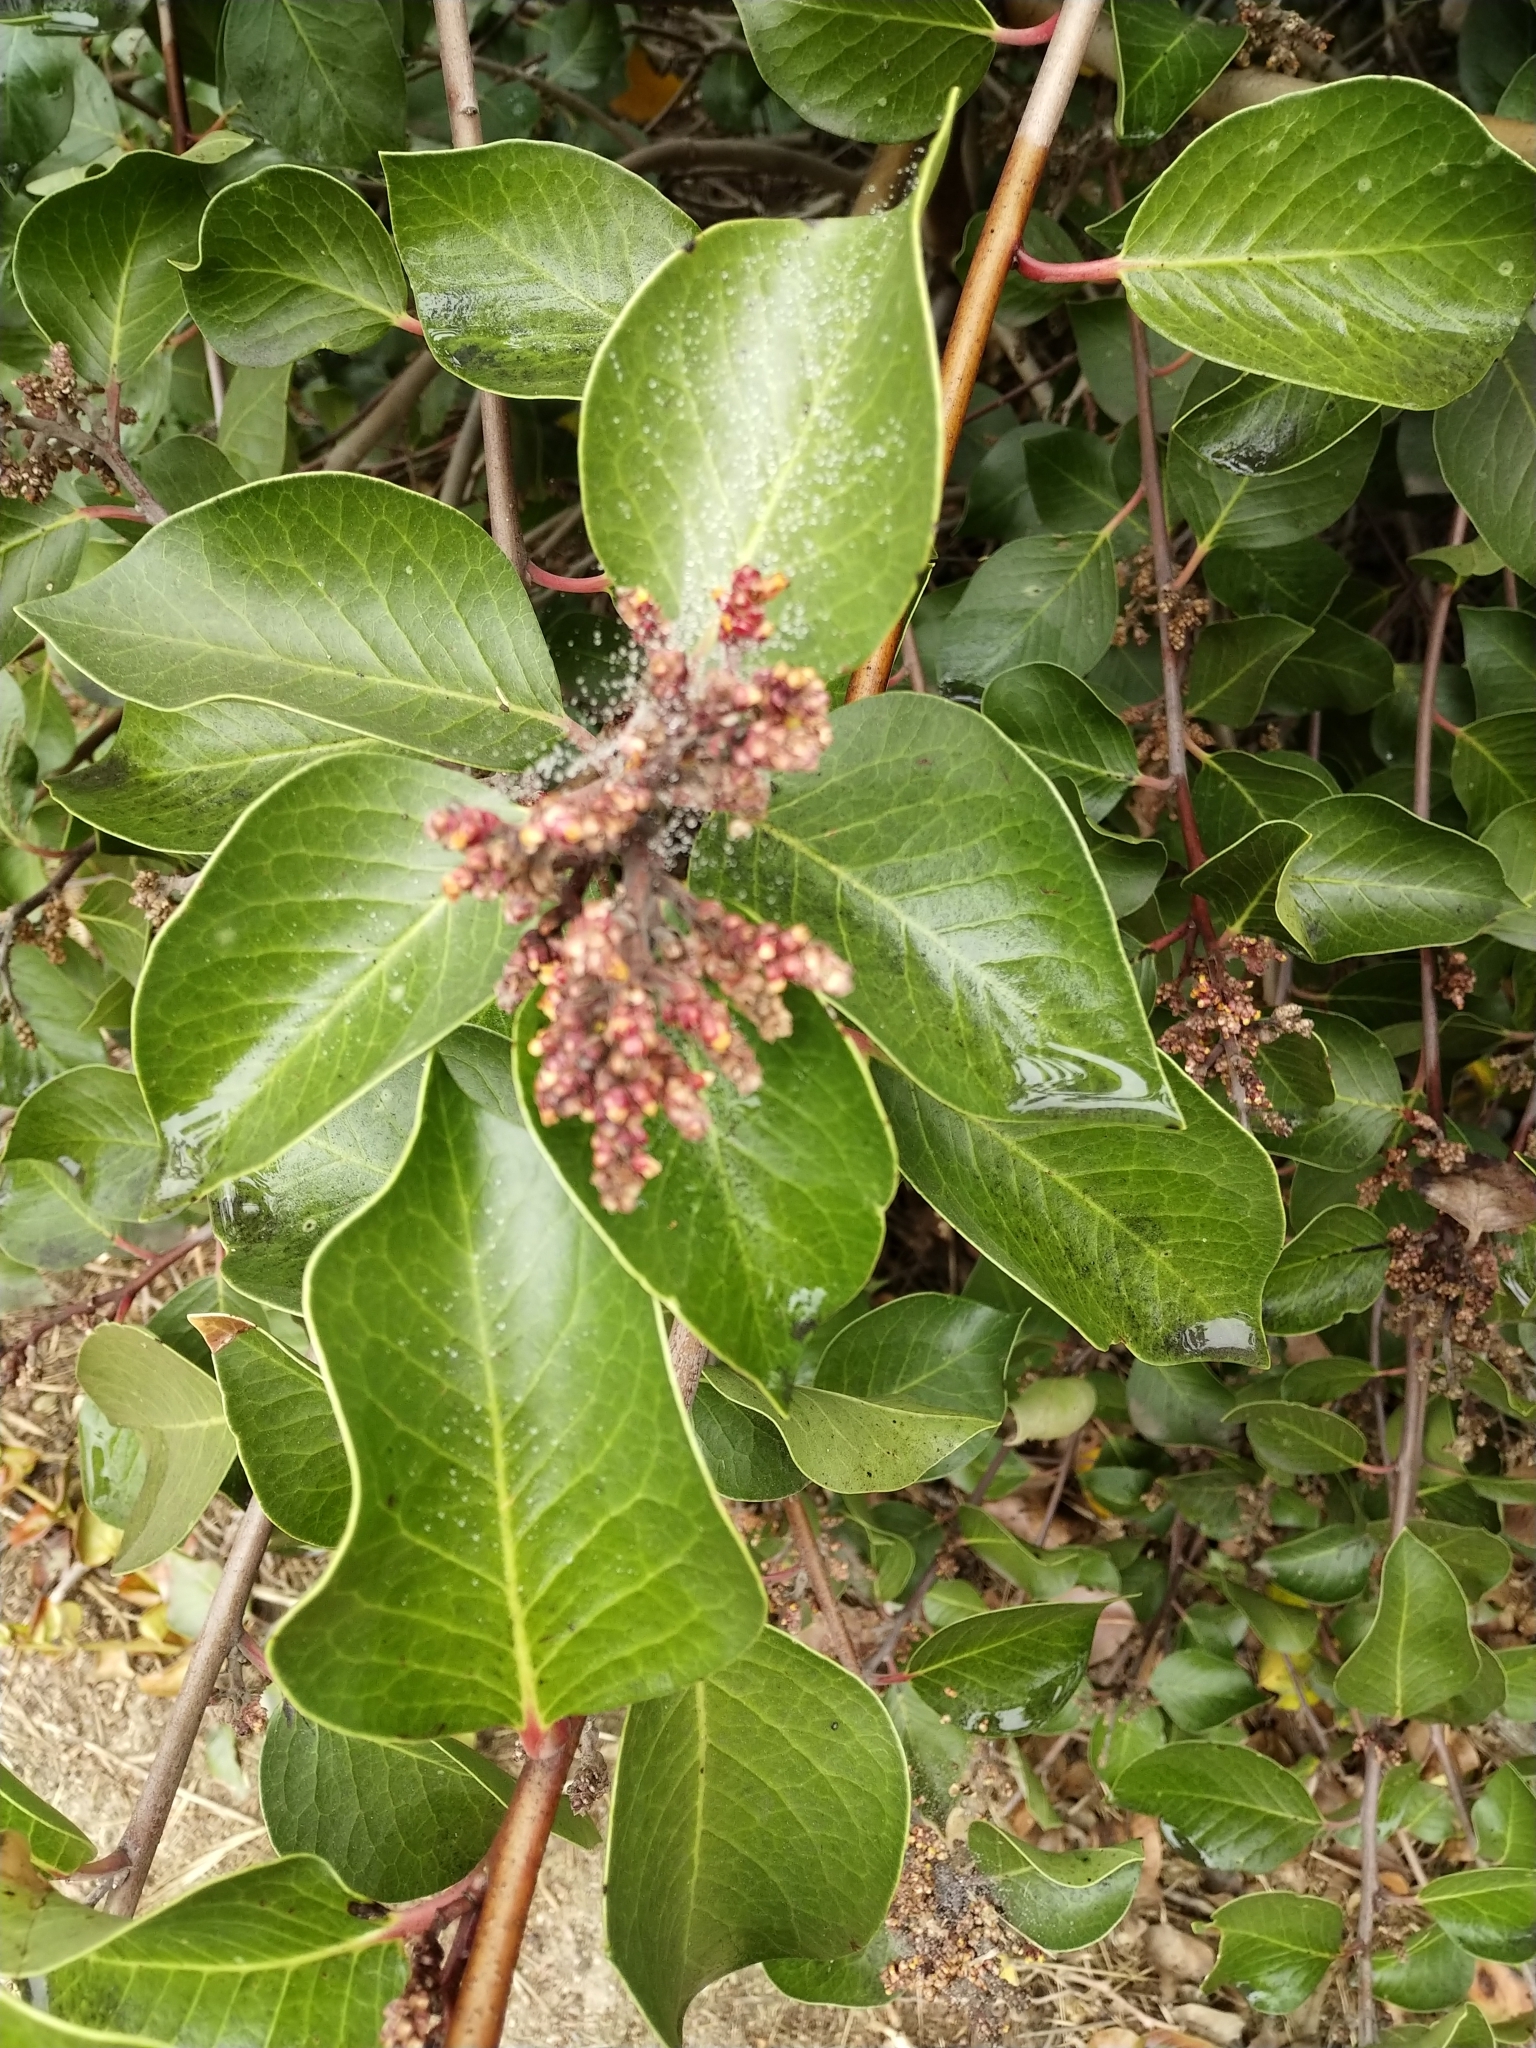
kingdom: Plantae
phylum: Tracheophyta
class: Magnoliopsida
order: Sapindales
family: Anacardiaceae
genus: Rhus
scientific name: Rhus ovata
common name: Sugar sumac
